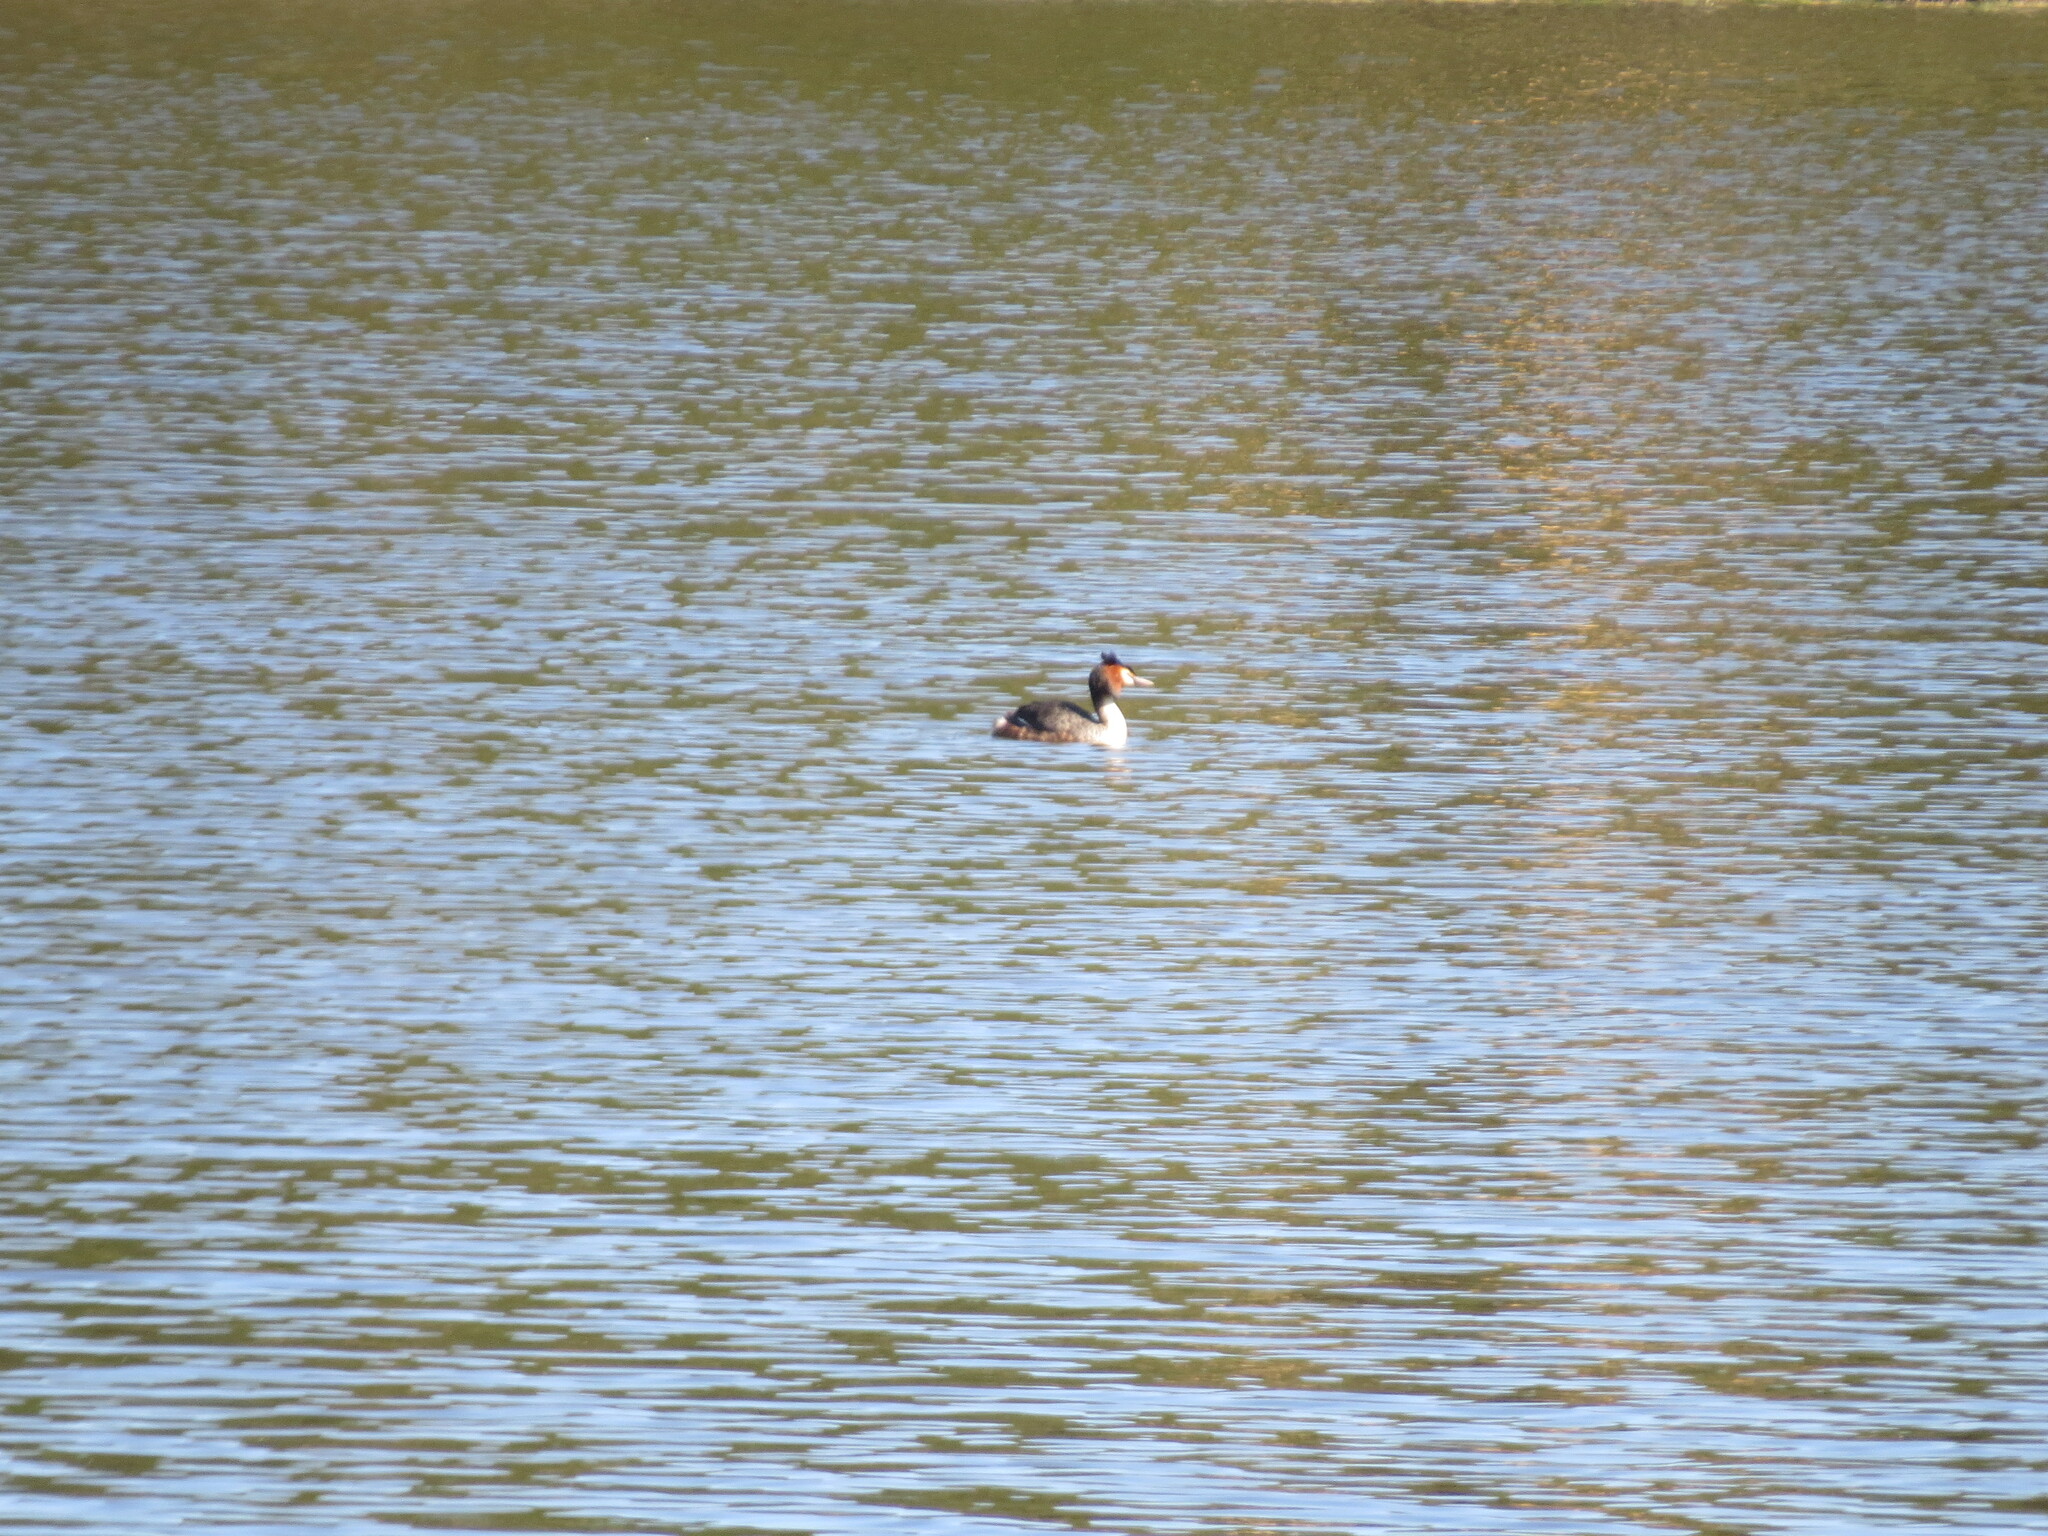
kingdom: Animalia
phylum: Chordata
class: Aves
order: Podicipediformes
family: Podicipedidae
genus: Podiceps
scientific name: Podiceps cristatus
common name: Great crested grebe
